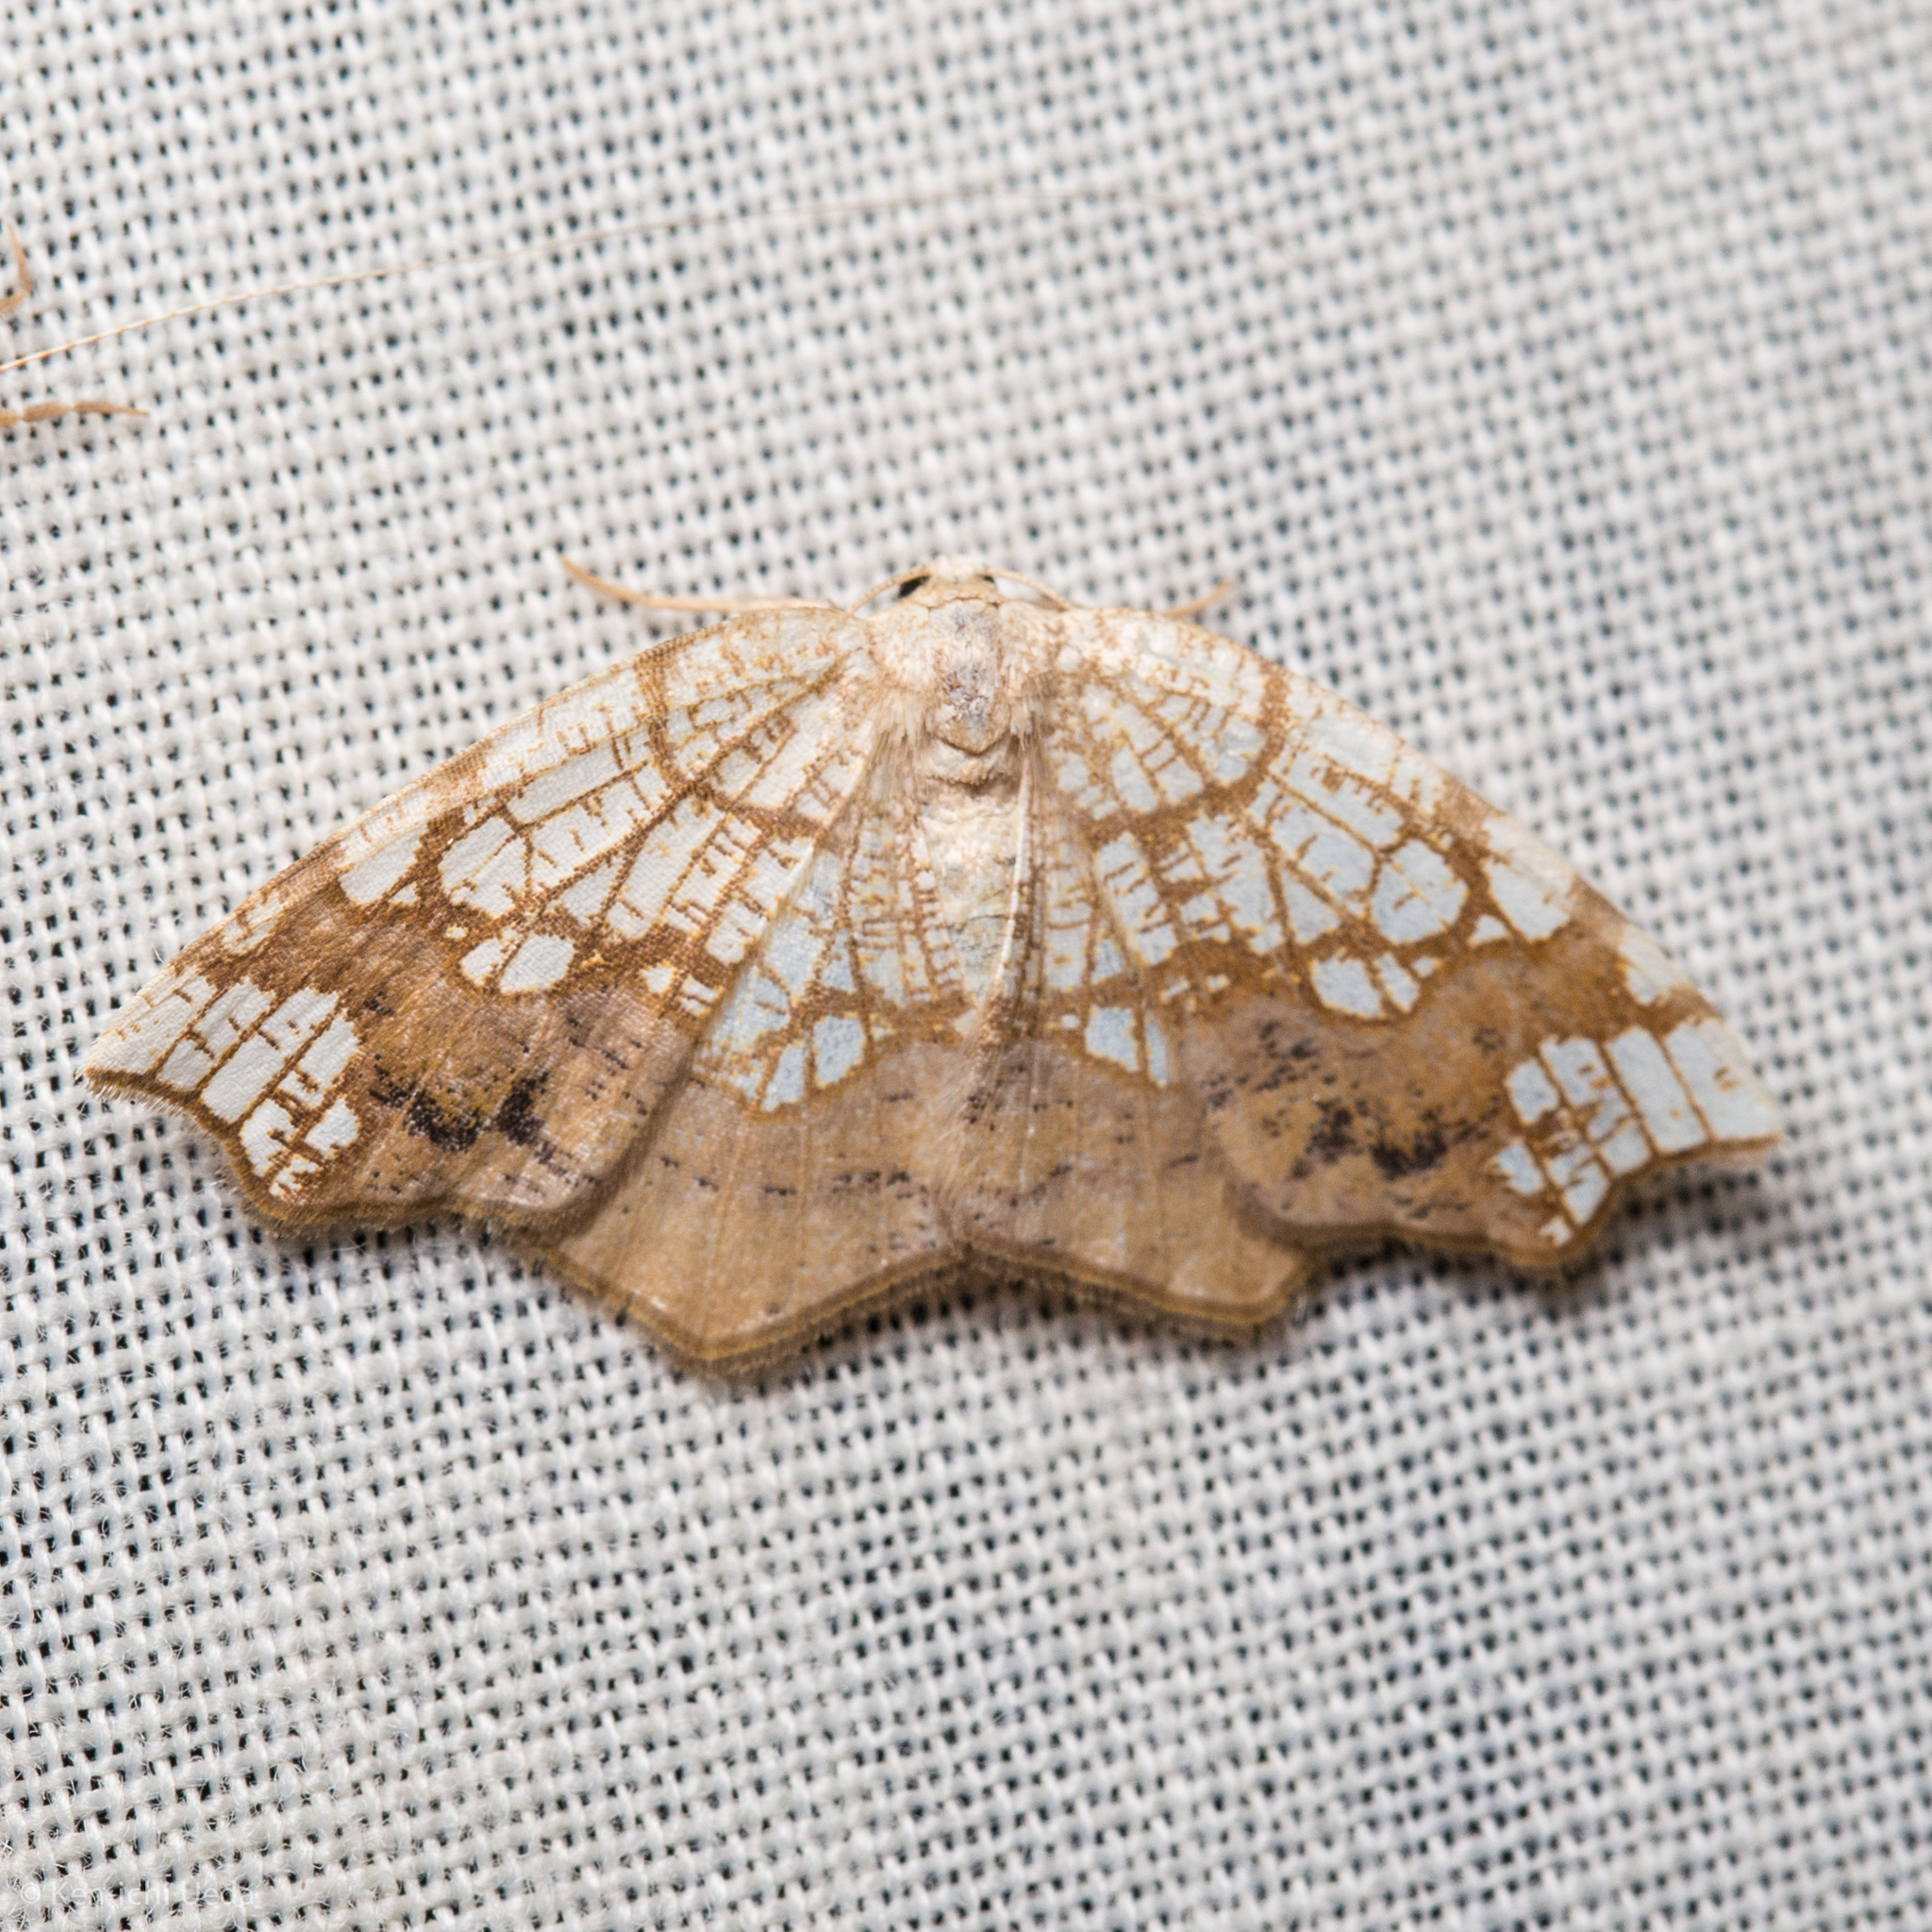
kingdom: Animalia
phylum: Arthropoda
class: Insecta
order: Lepidoptera
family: Geometridae
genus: Nematocampa
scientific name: Nematocampa resistaria
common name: Horned spanworm moth
